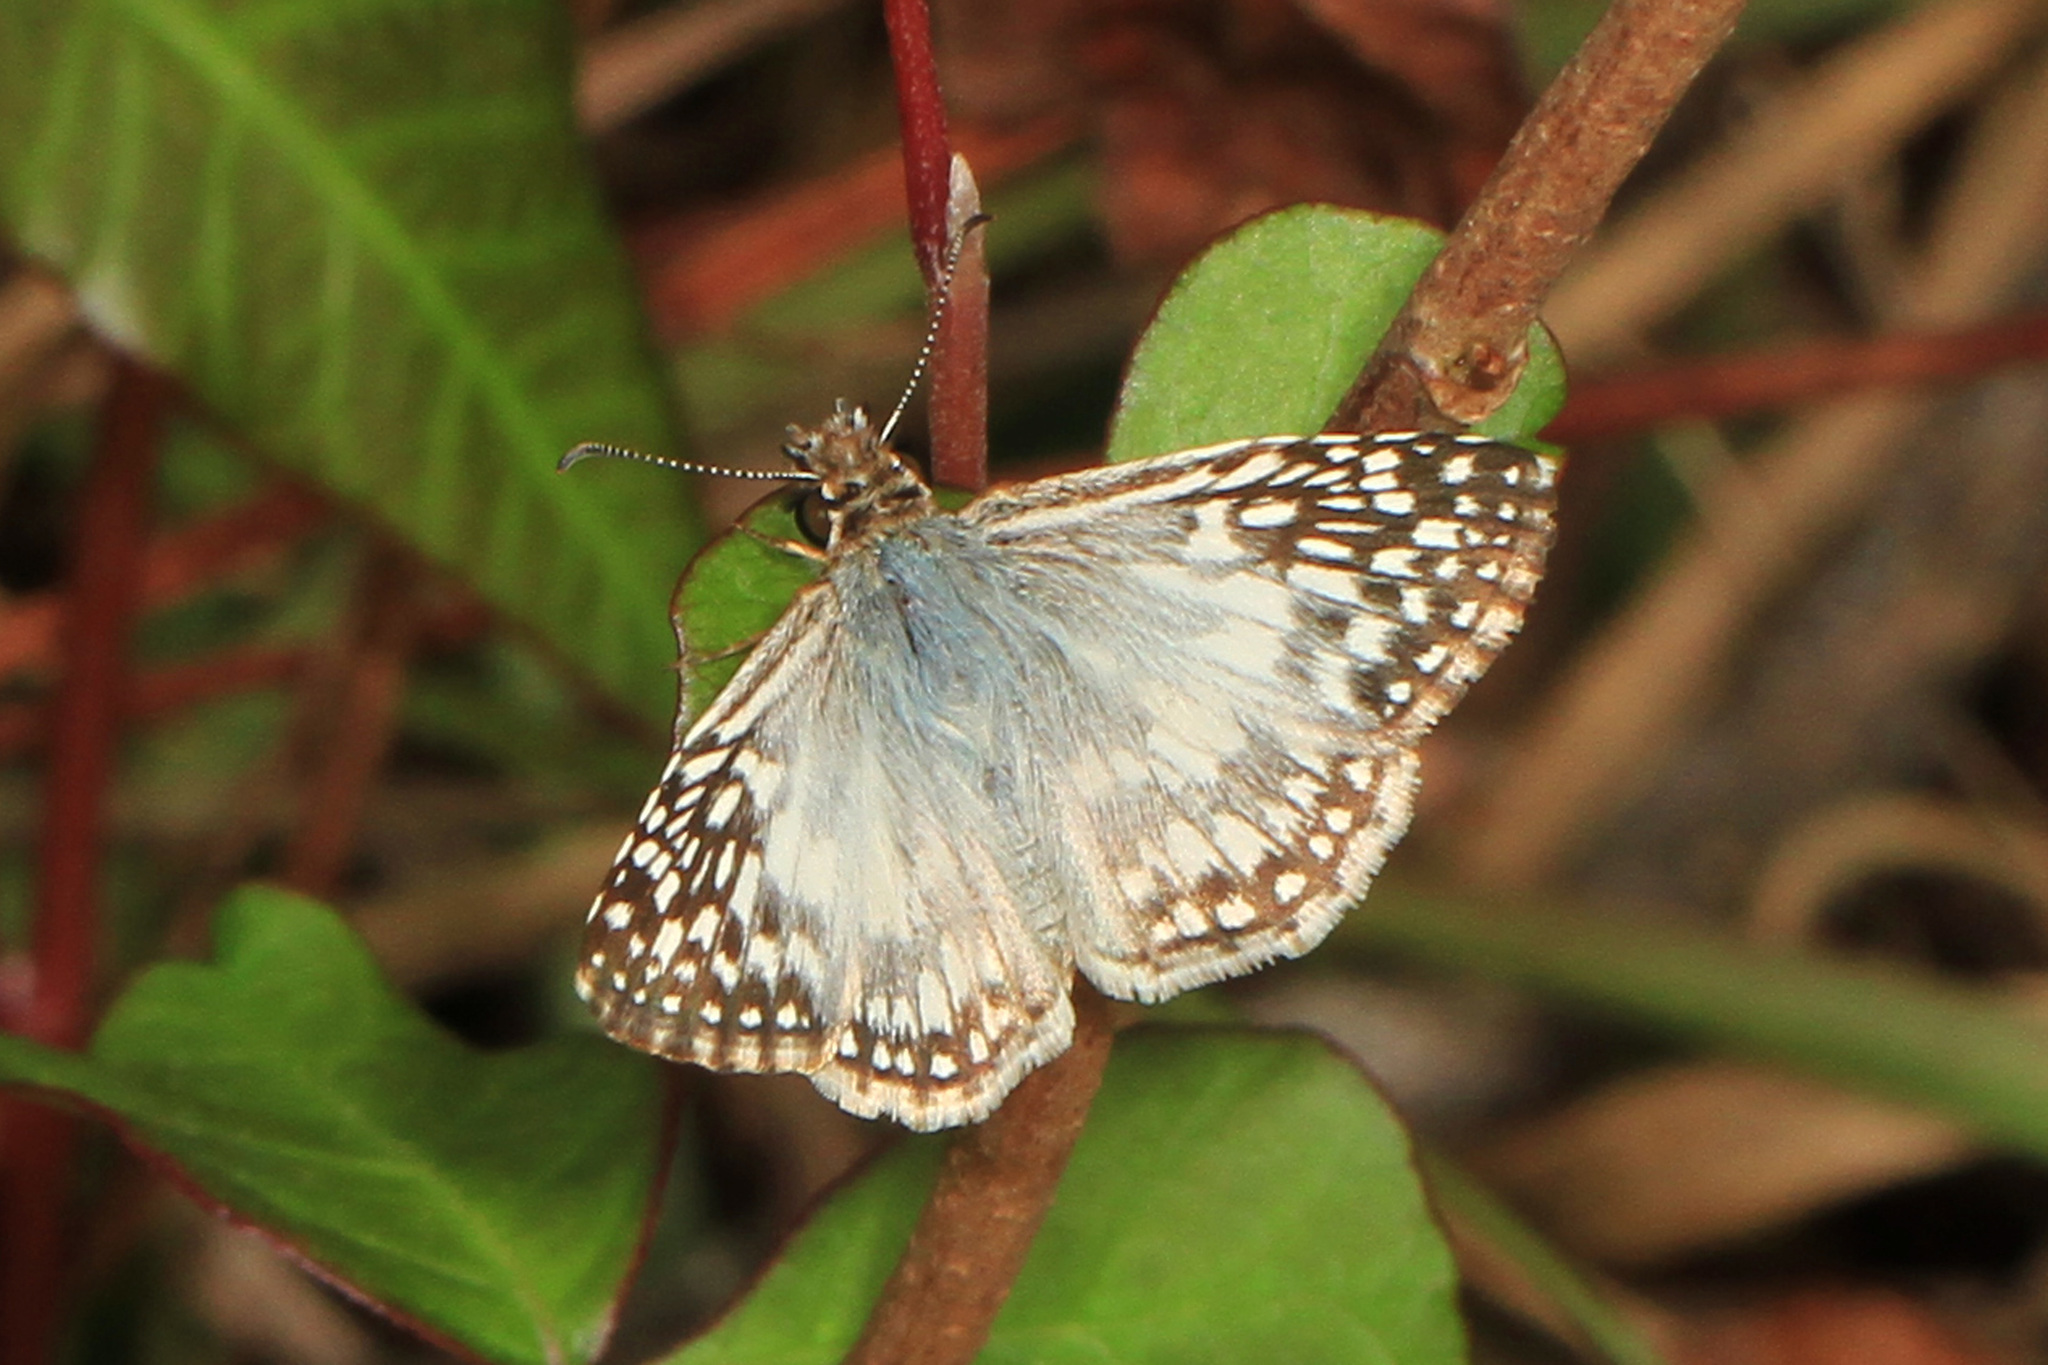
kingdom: Animalia
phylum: Arthropoda
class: Insecta
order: Lepidoptera
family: Hesperiidae
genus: Pyrgus
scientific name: Pyrgus oileus
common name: Tropical checkered-skipper
